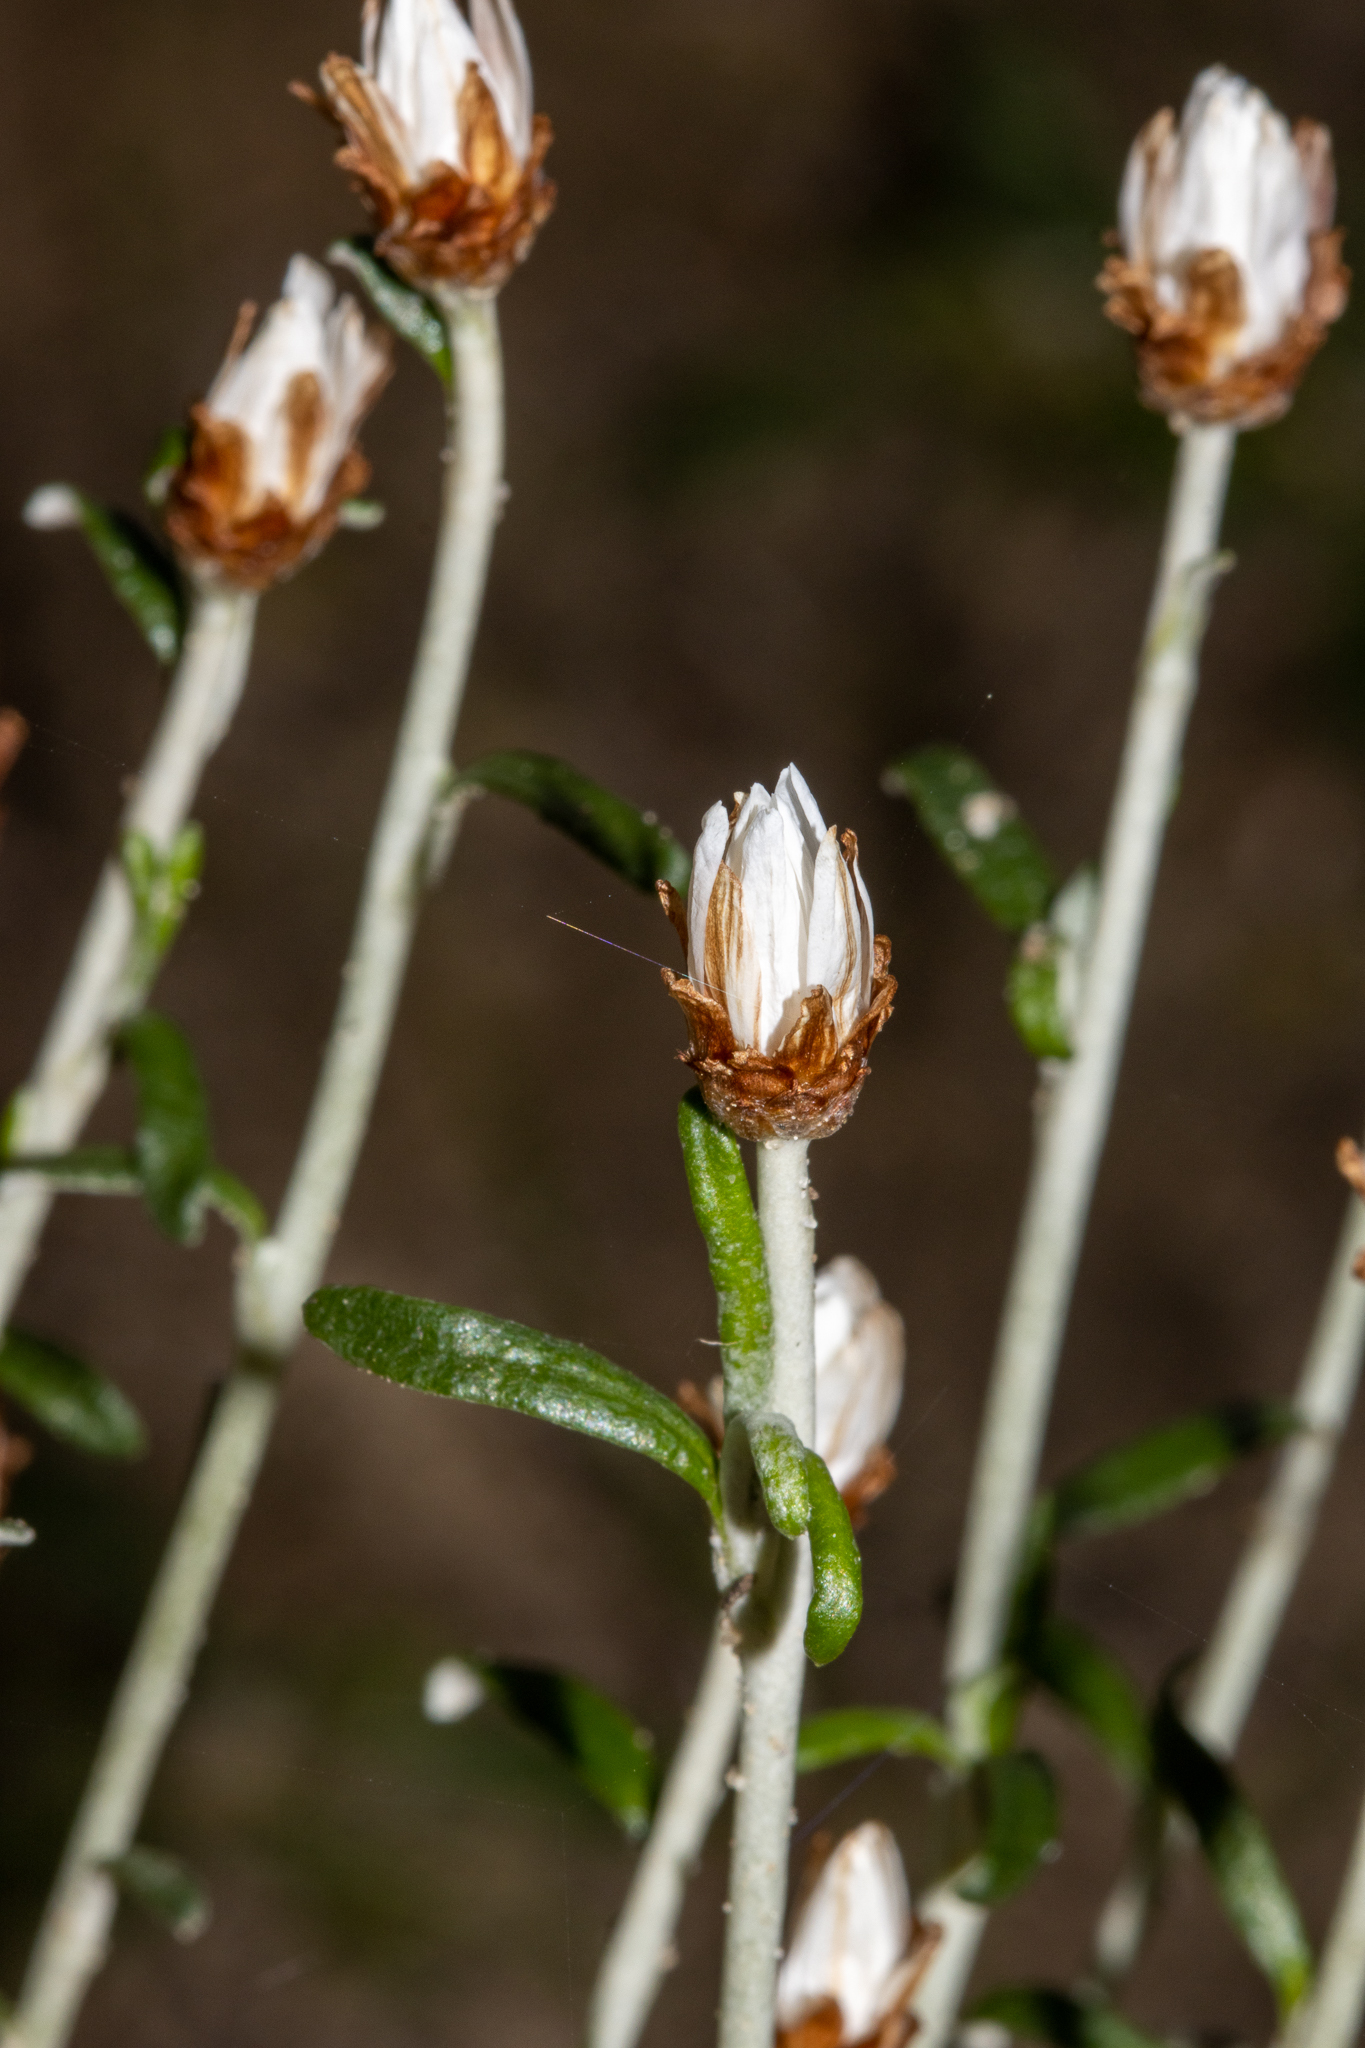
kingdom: Plantae
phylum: Tracheophyta
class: Magnoliopsida
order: Asterales
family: Asteraceae
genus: Argentipallium
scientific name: Argentipallium obtusifolium
